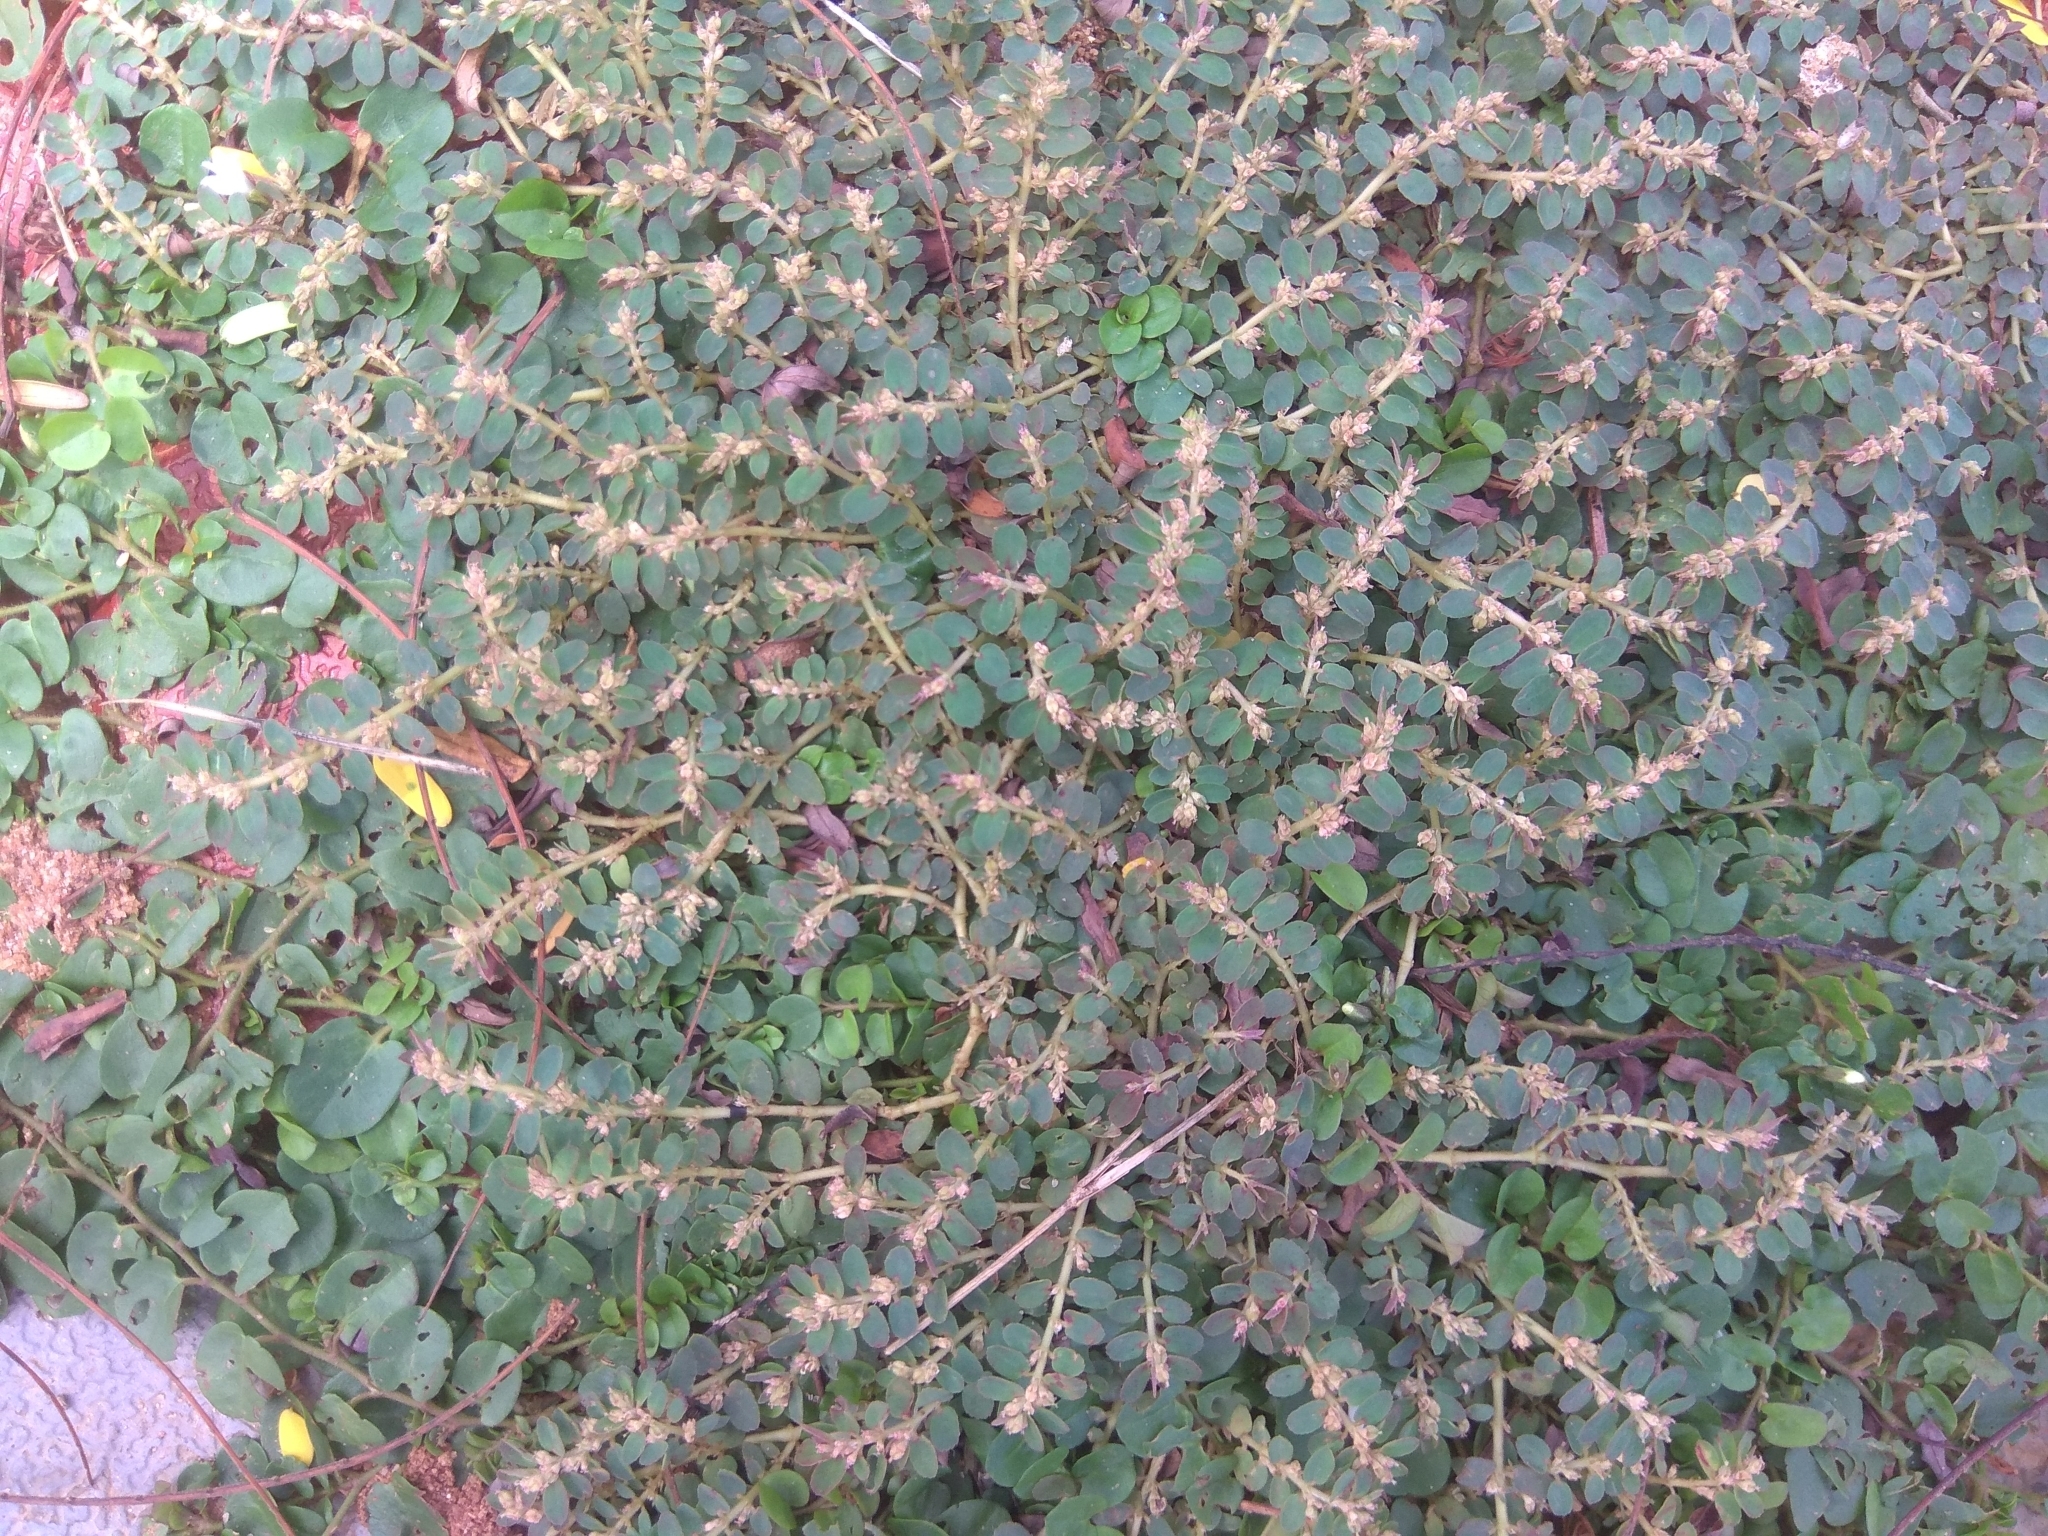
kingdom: Plantae
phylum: Tracheophyta
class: Magnoliopsida
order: Malpighiales
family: Euphorbiaceae
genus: Euphorbia
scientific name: Euphorbia prostrata
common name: Prostrate sandmat
